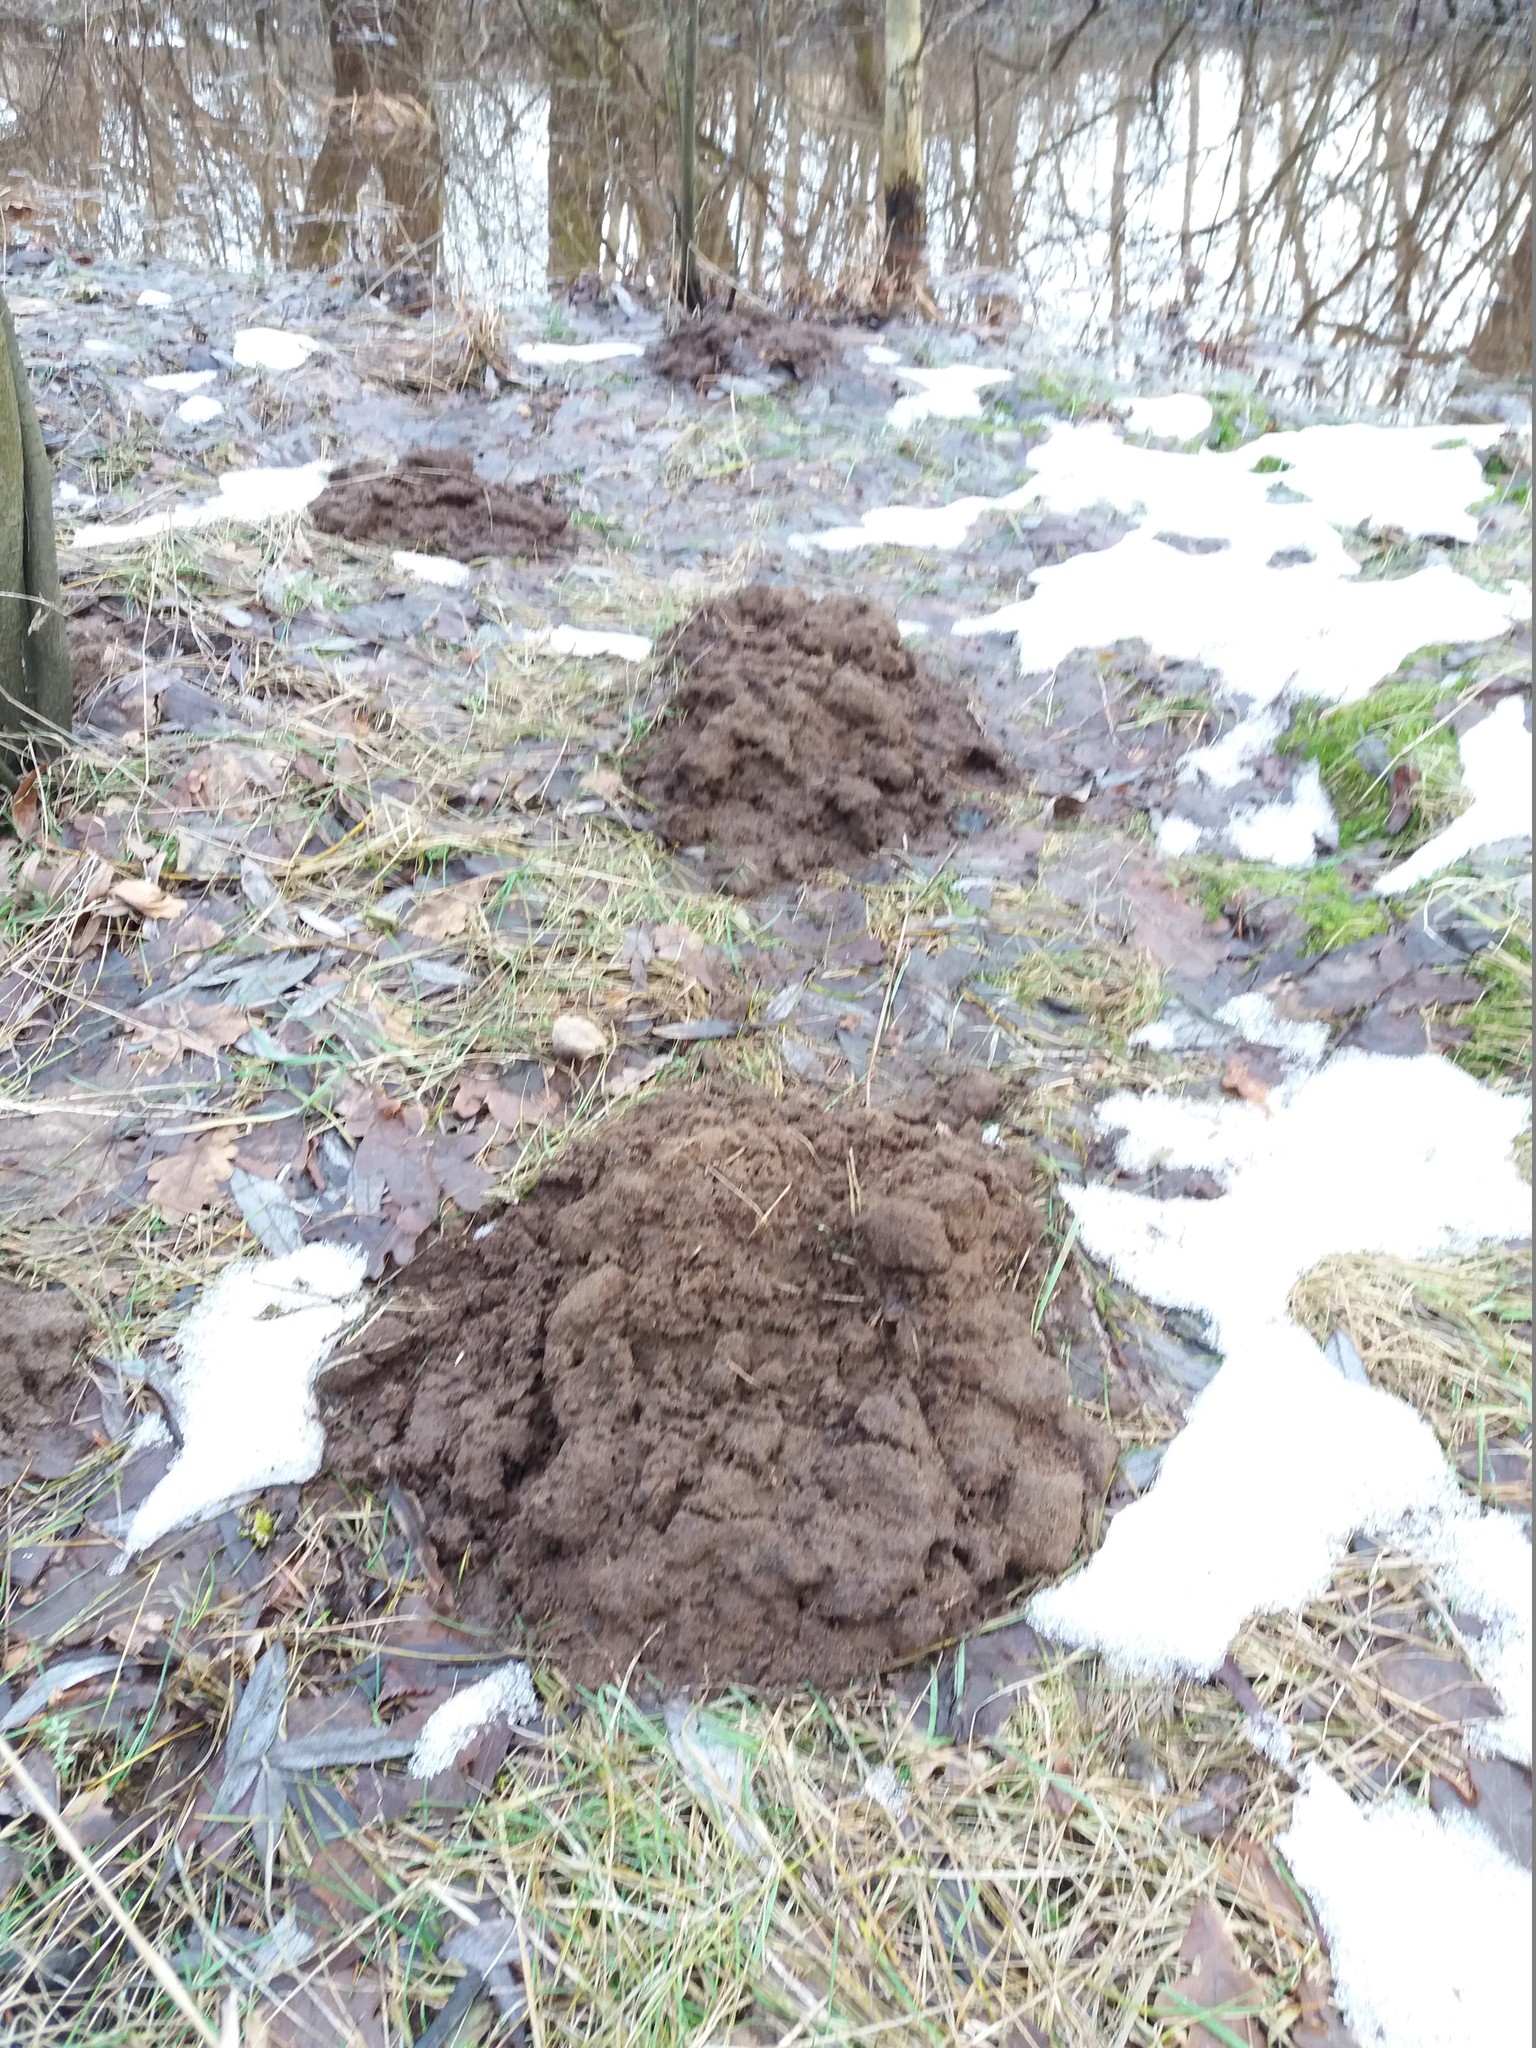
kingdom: Animalia
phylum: Chordata
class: Mammalia
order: Soricomorpha
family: Talpidae
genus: Talpa
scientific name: Talpa europaea
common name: European mole
